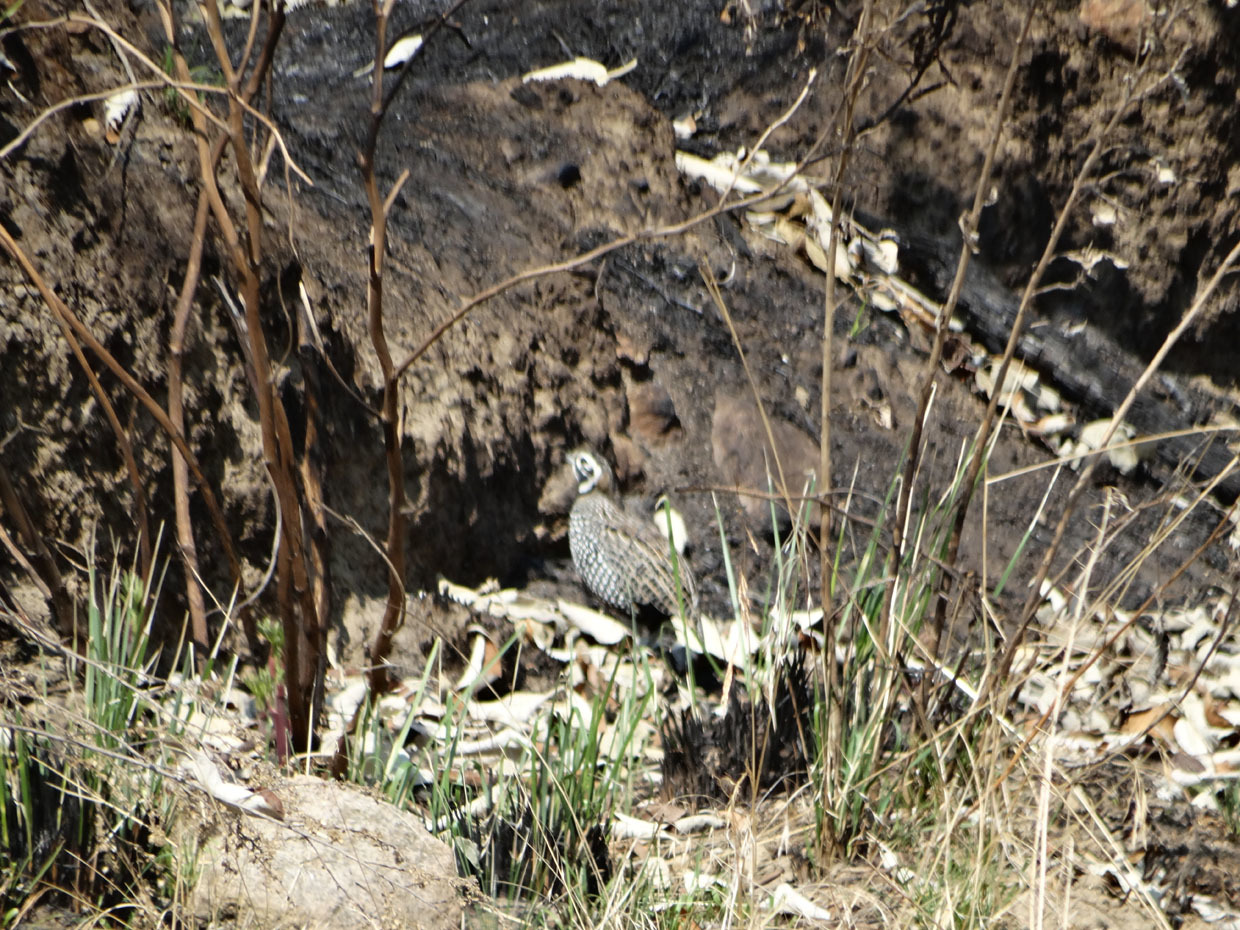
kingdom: Animalia
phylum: Chordata
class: Aves
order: Galliformes
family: Odontophoridae
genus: Cyrtonyx
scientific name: Cyrtonyx montezumae
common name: Montezuma quail
